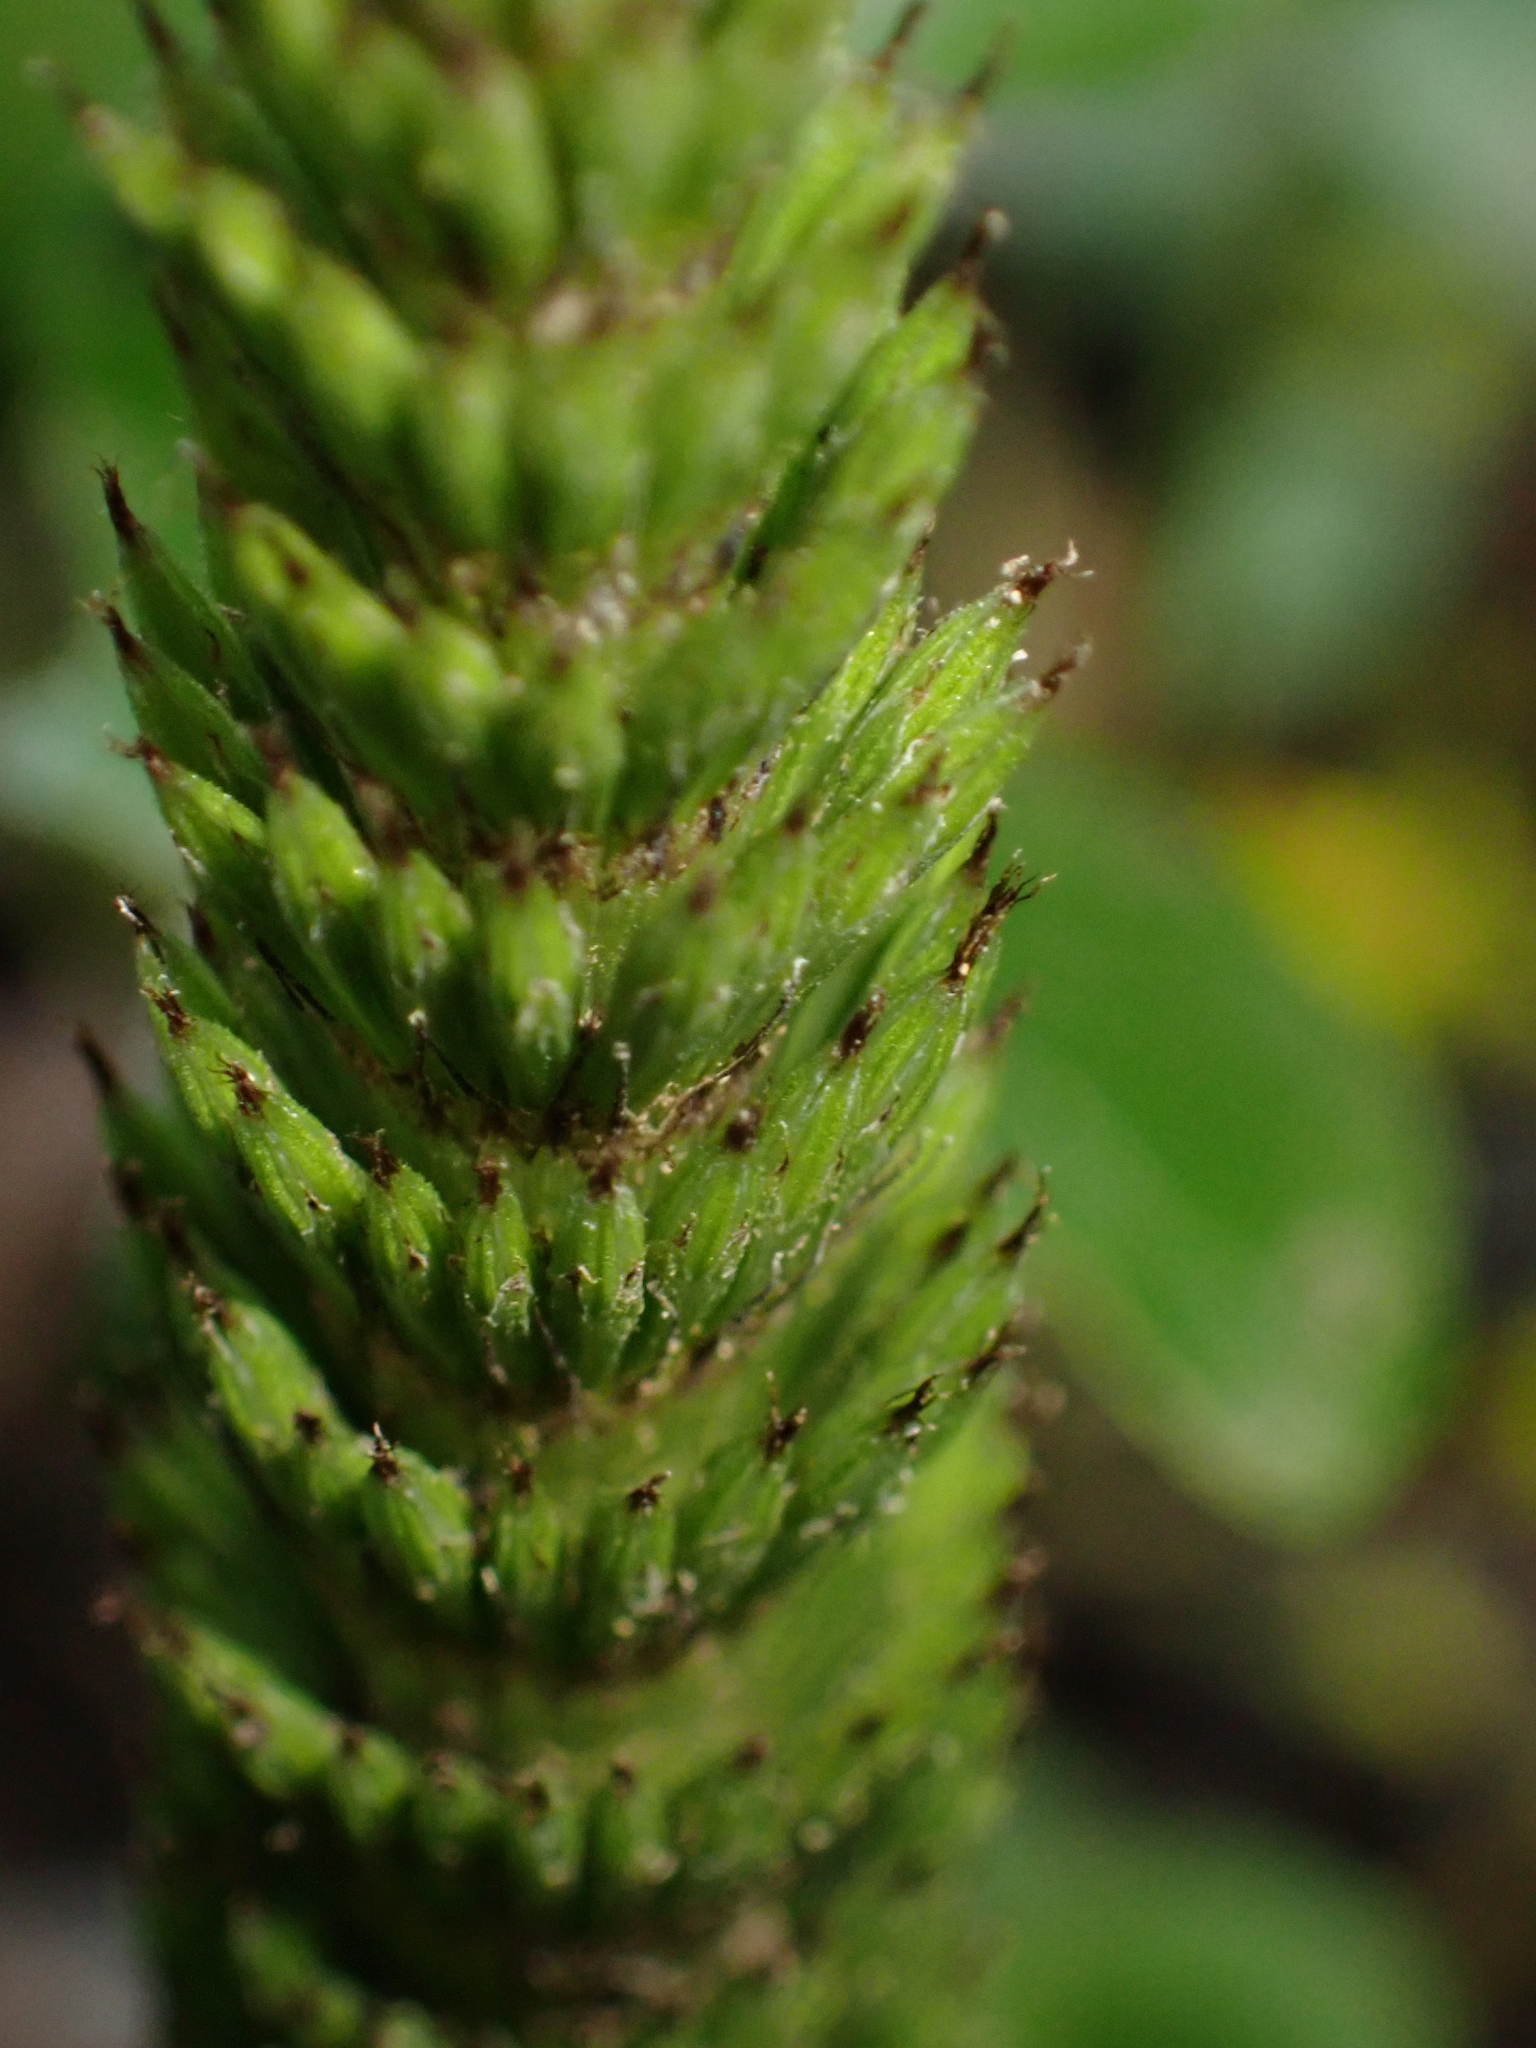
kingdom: Plantae
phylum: Tracheophyta
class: Polypodiopsida
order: Equisetales
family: Equisetaceae
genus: Equisetum
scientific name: Equisetum telmateia
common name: Great horsetail
